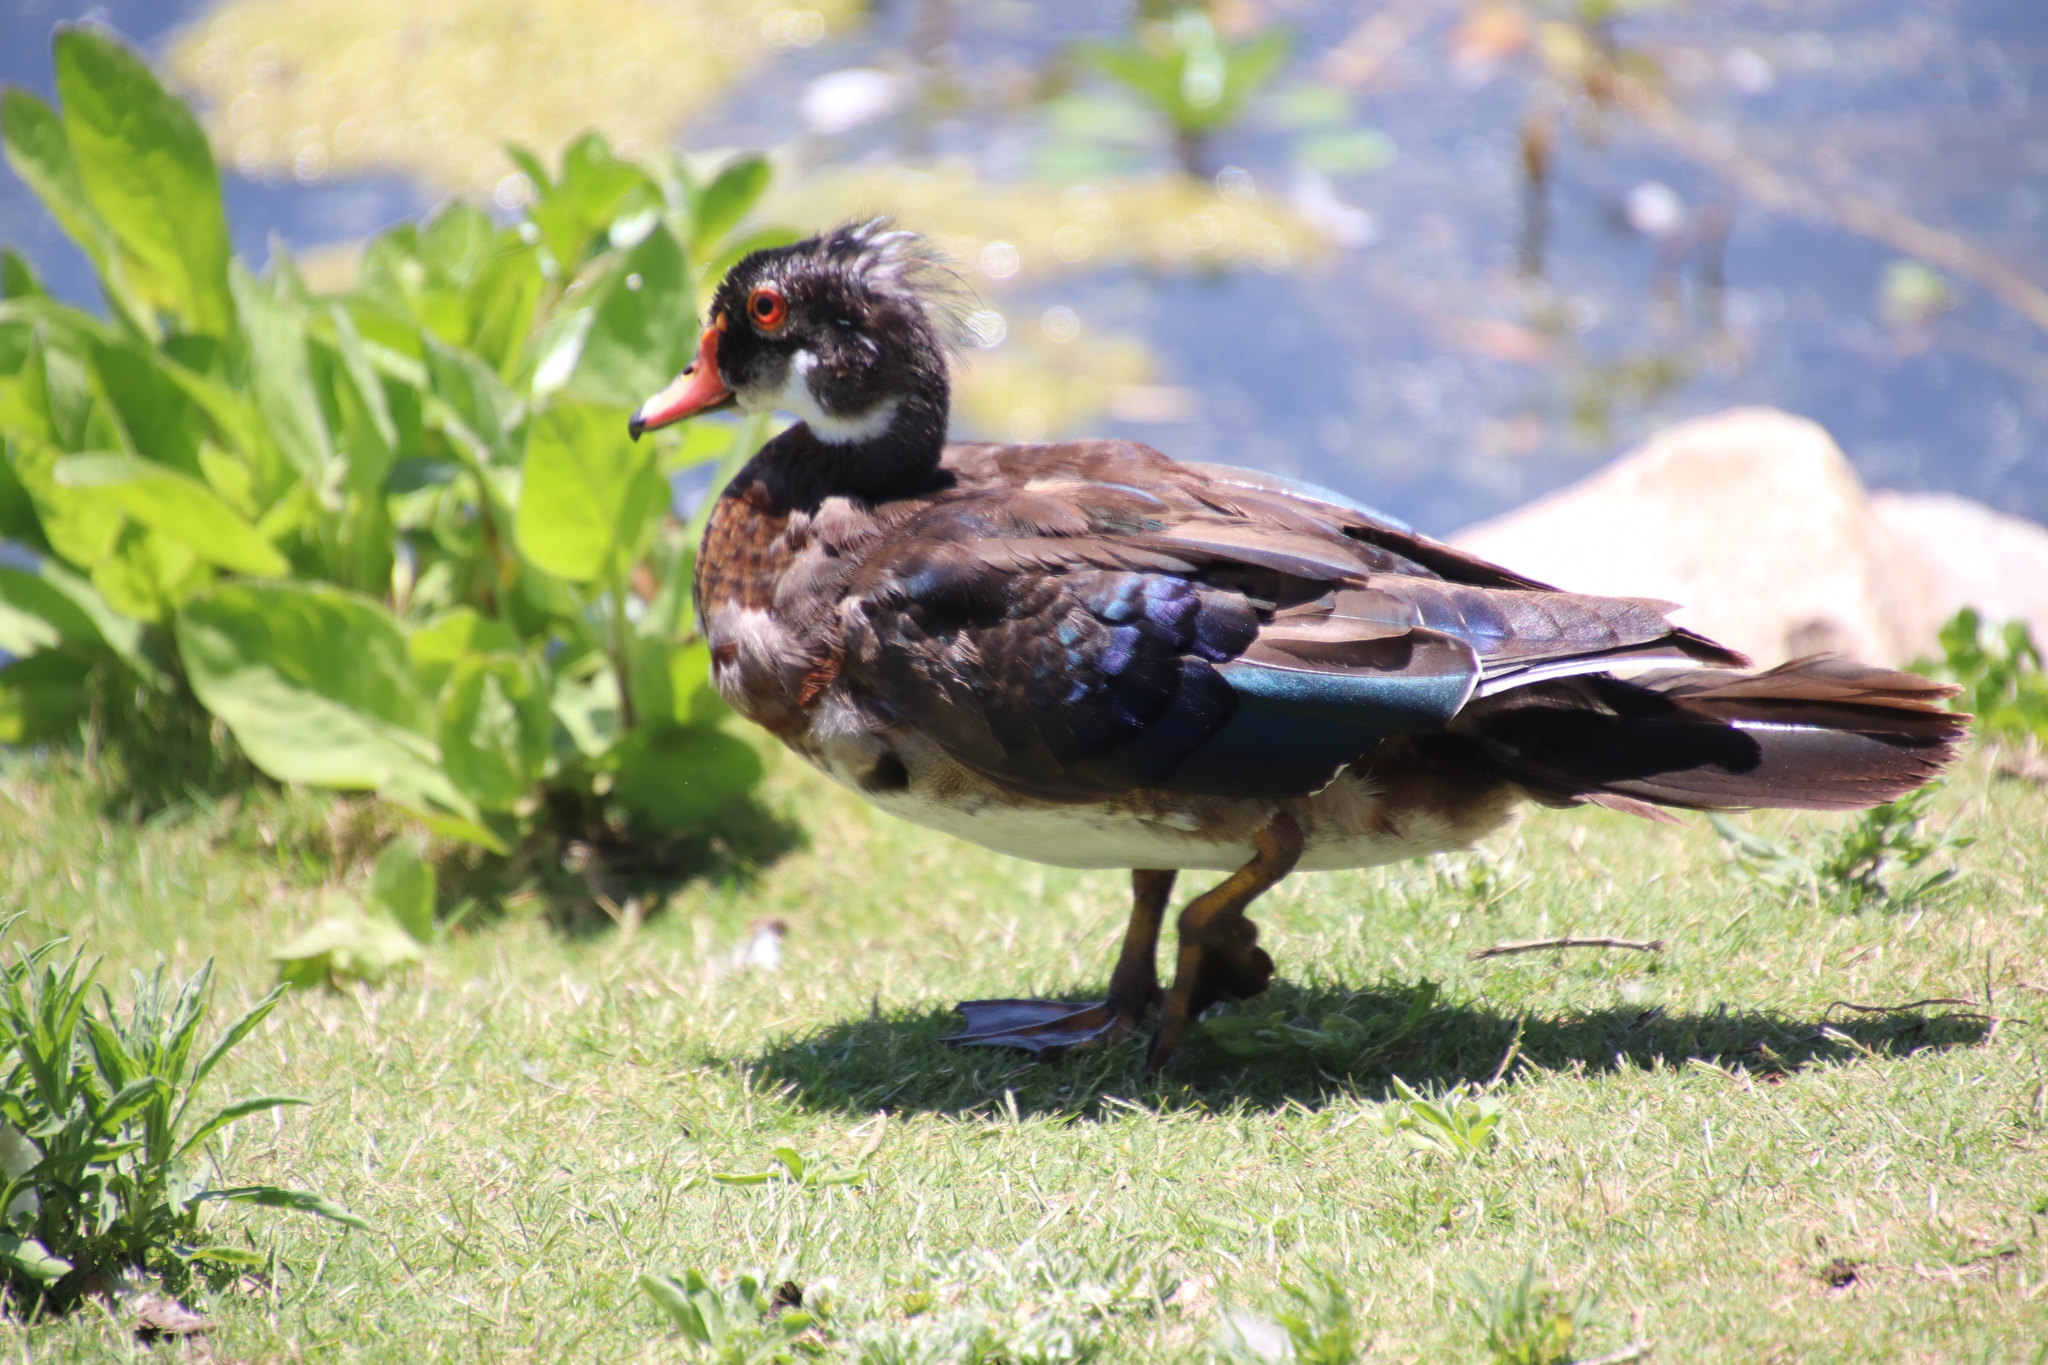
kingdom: Animalia
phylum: Chordata
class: Aves
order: Anseriformes
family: Anatidae
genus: Aix
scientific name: Aix sponsa
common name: Wood duck
